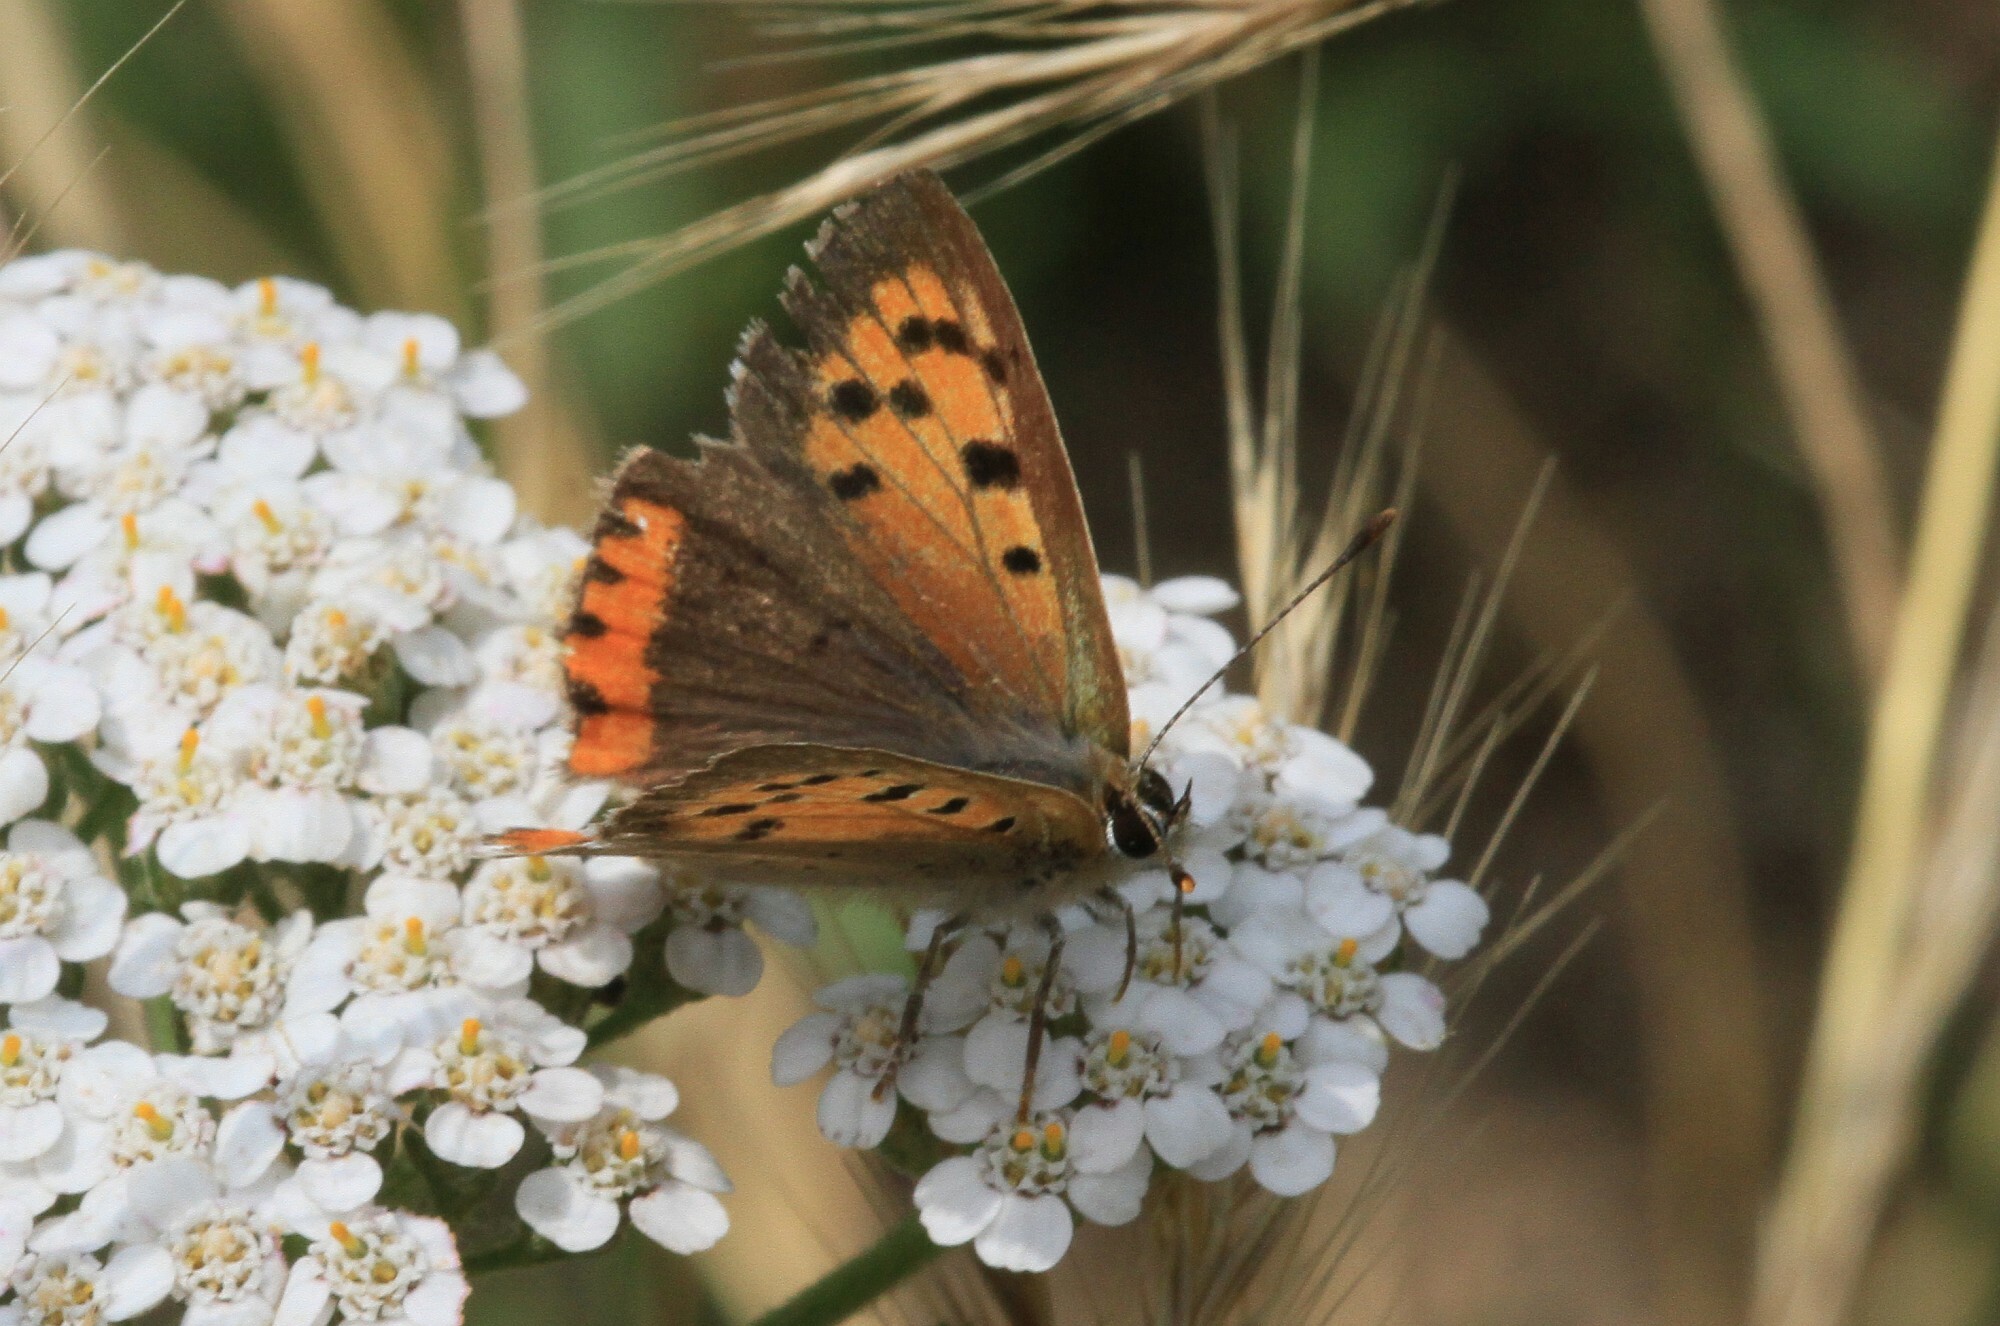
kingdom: Animalia
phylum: Arthropoda
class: Insecta
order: Lepidoptera
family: Lycaenidae
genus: Lycaena
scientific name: Lycaena phlaeas
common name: Small copper
